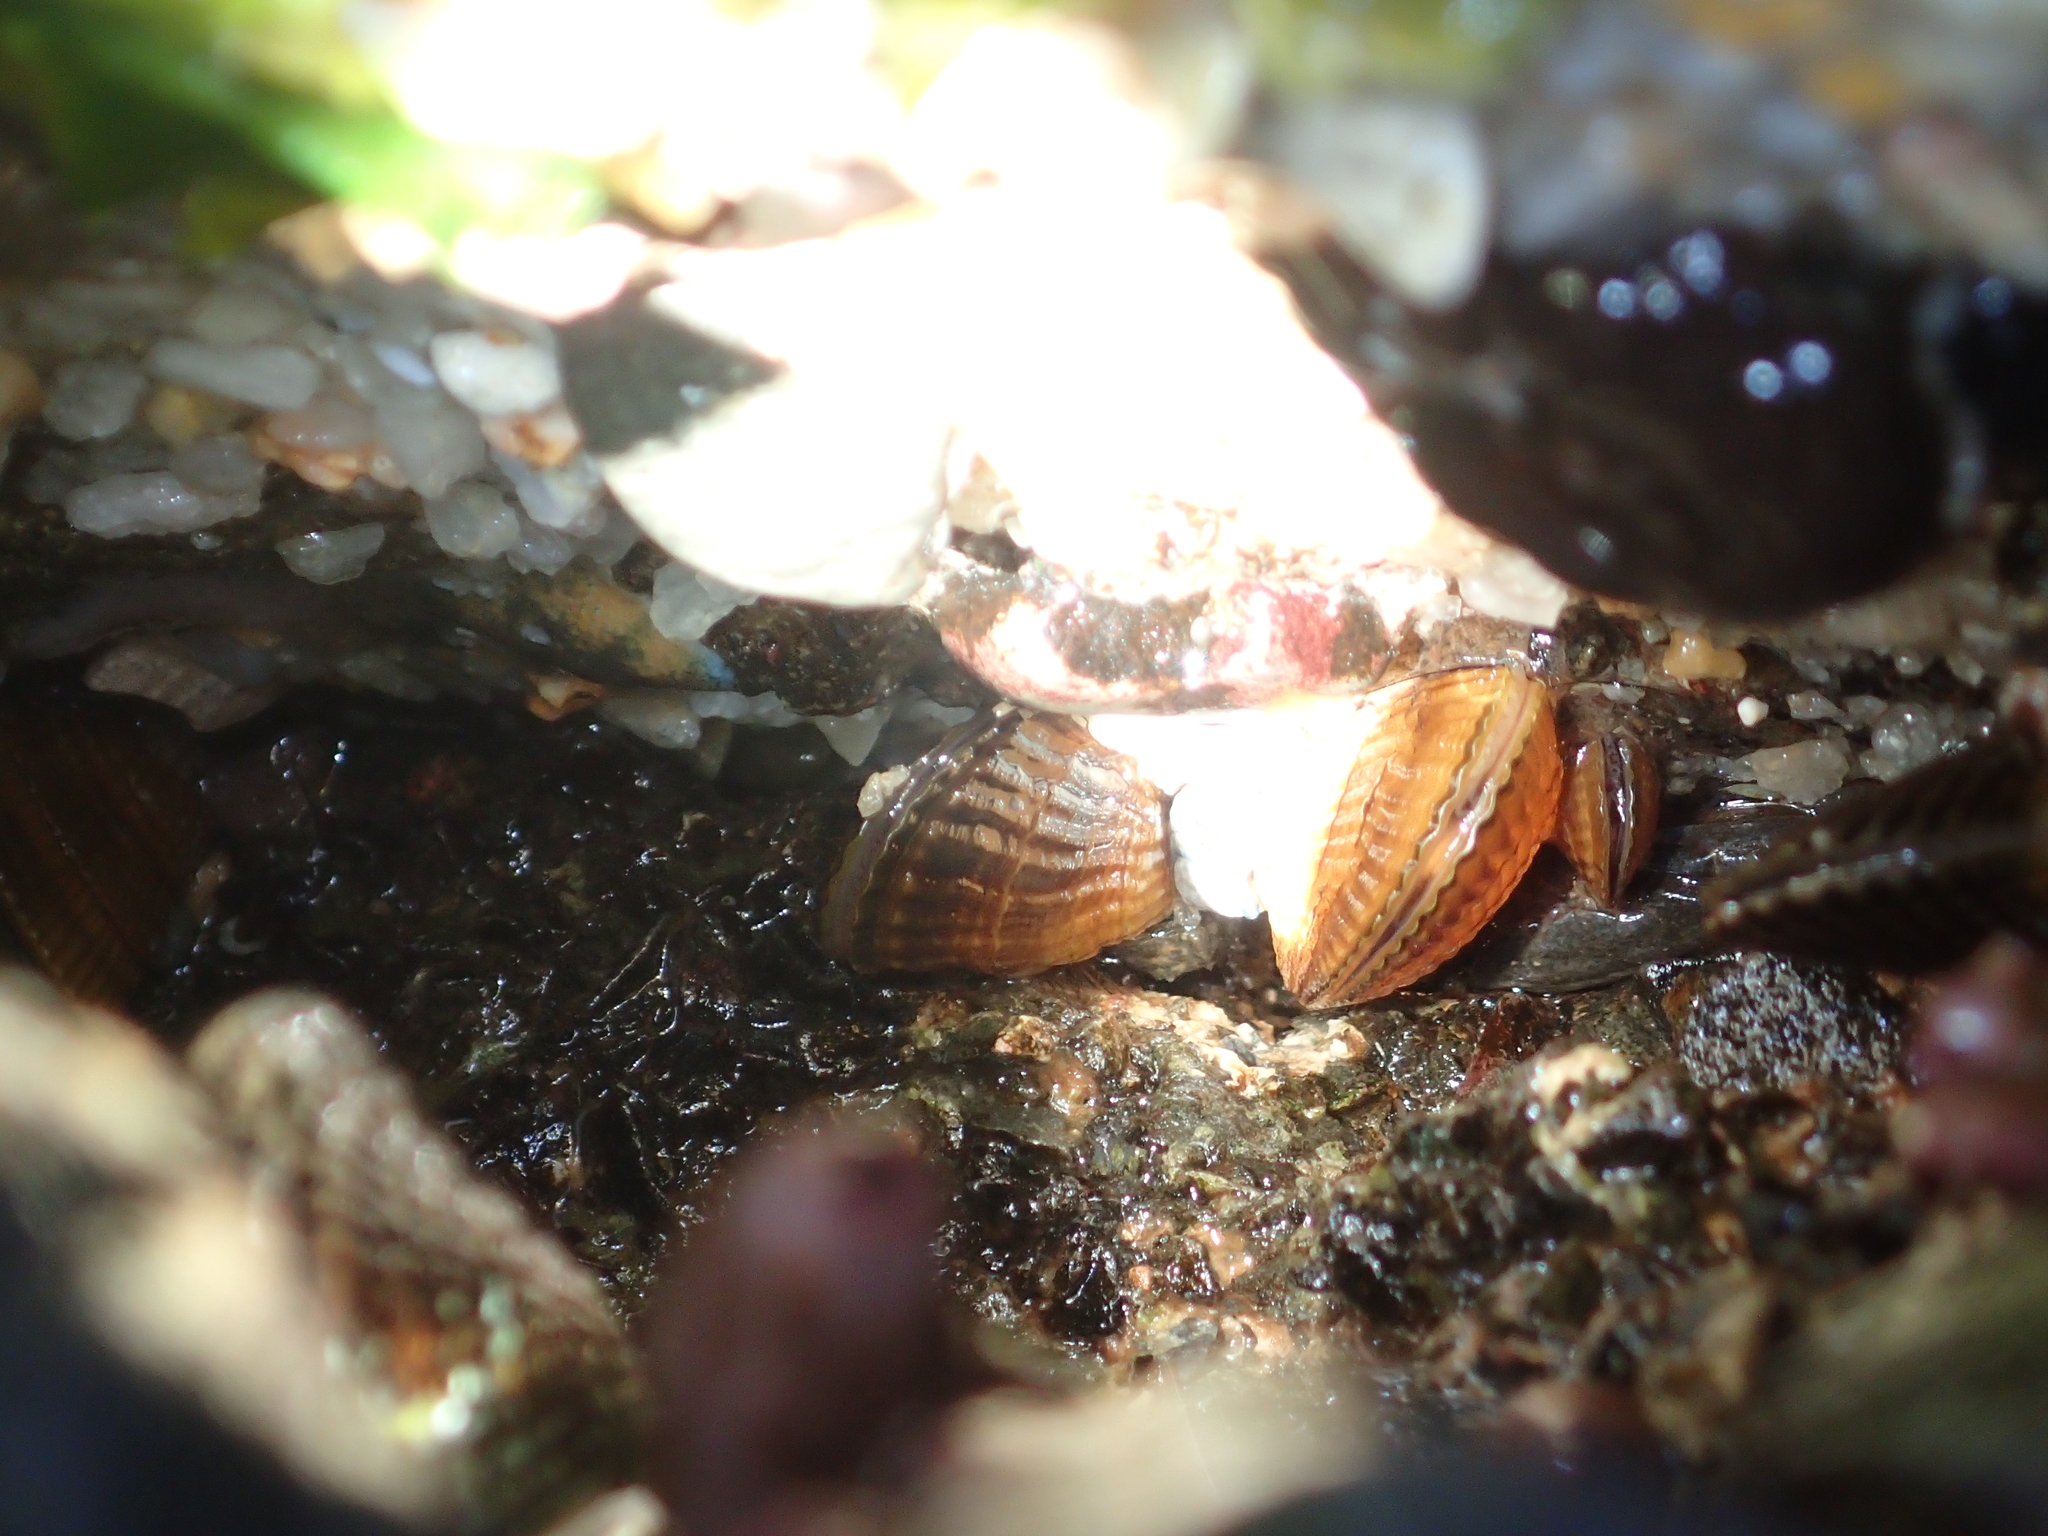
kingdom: Animalia
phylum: Mollusca
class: Bivalvia
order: Mytilida
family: Mytilidae
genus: Aulacomya
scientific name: Aulacomya maoriana
